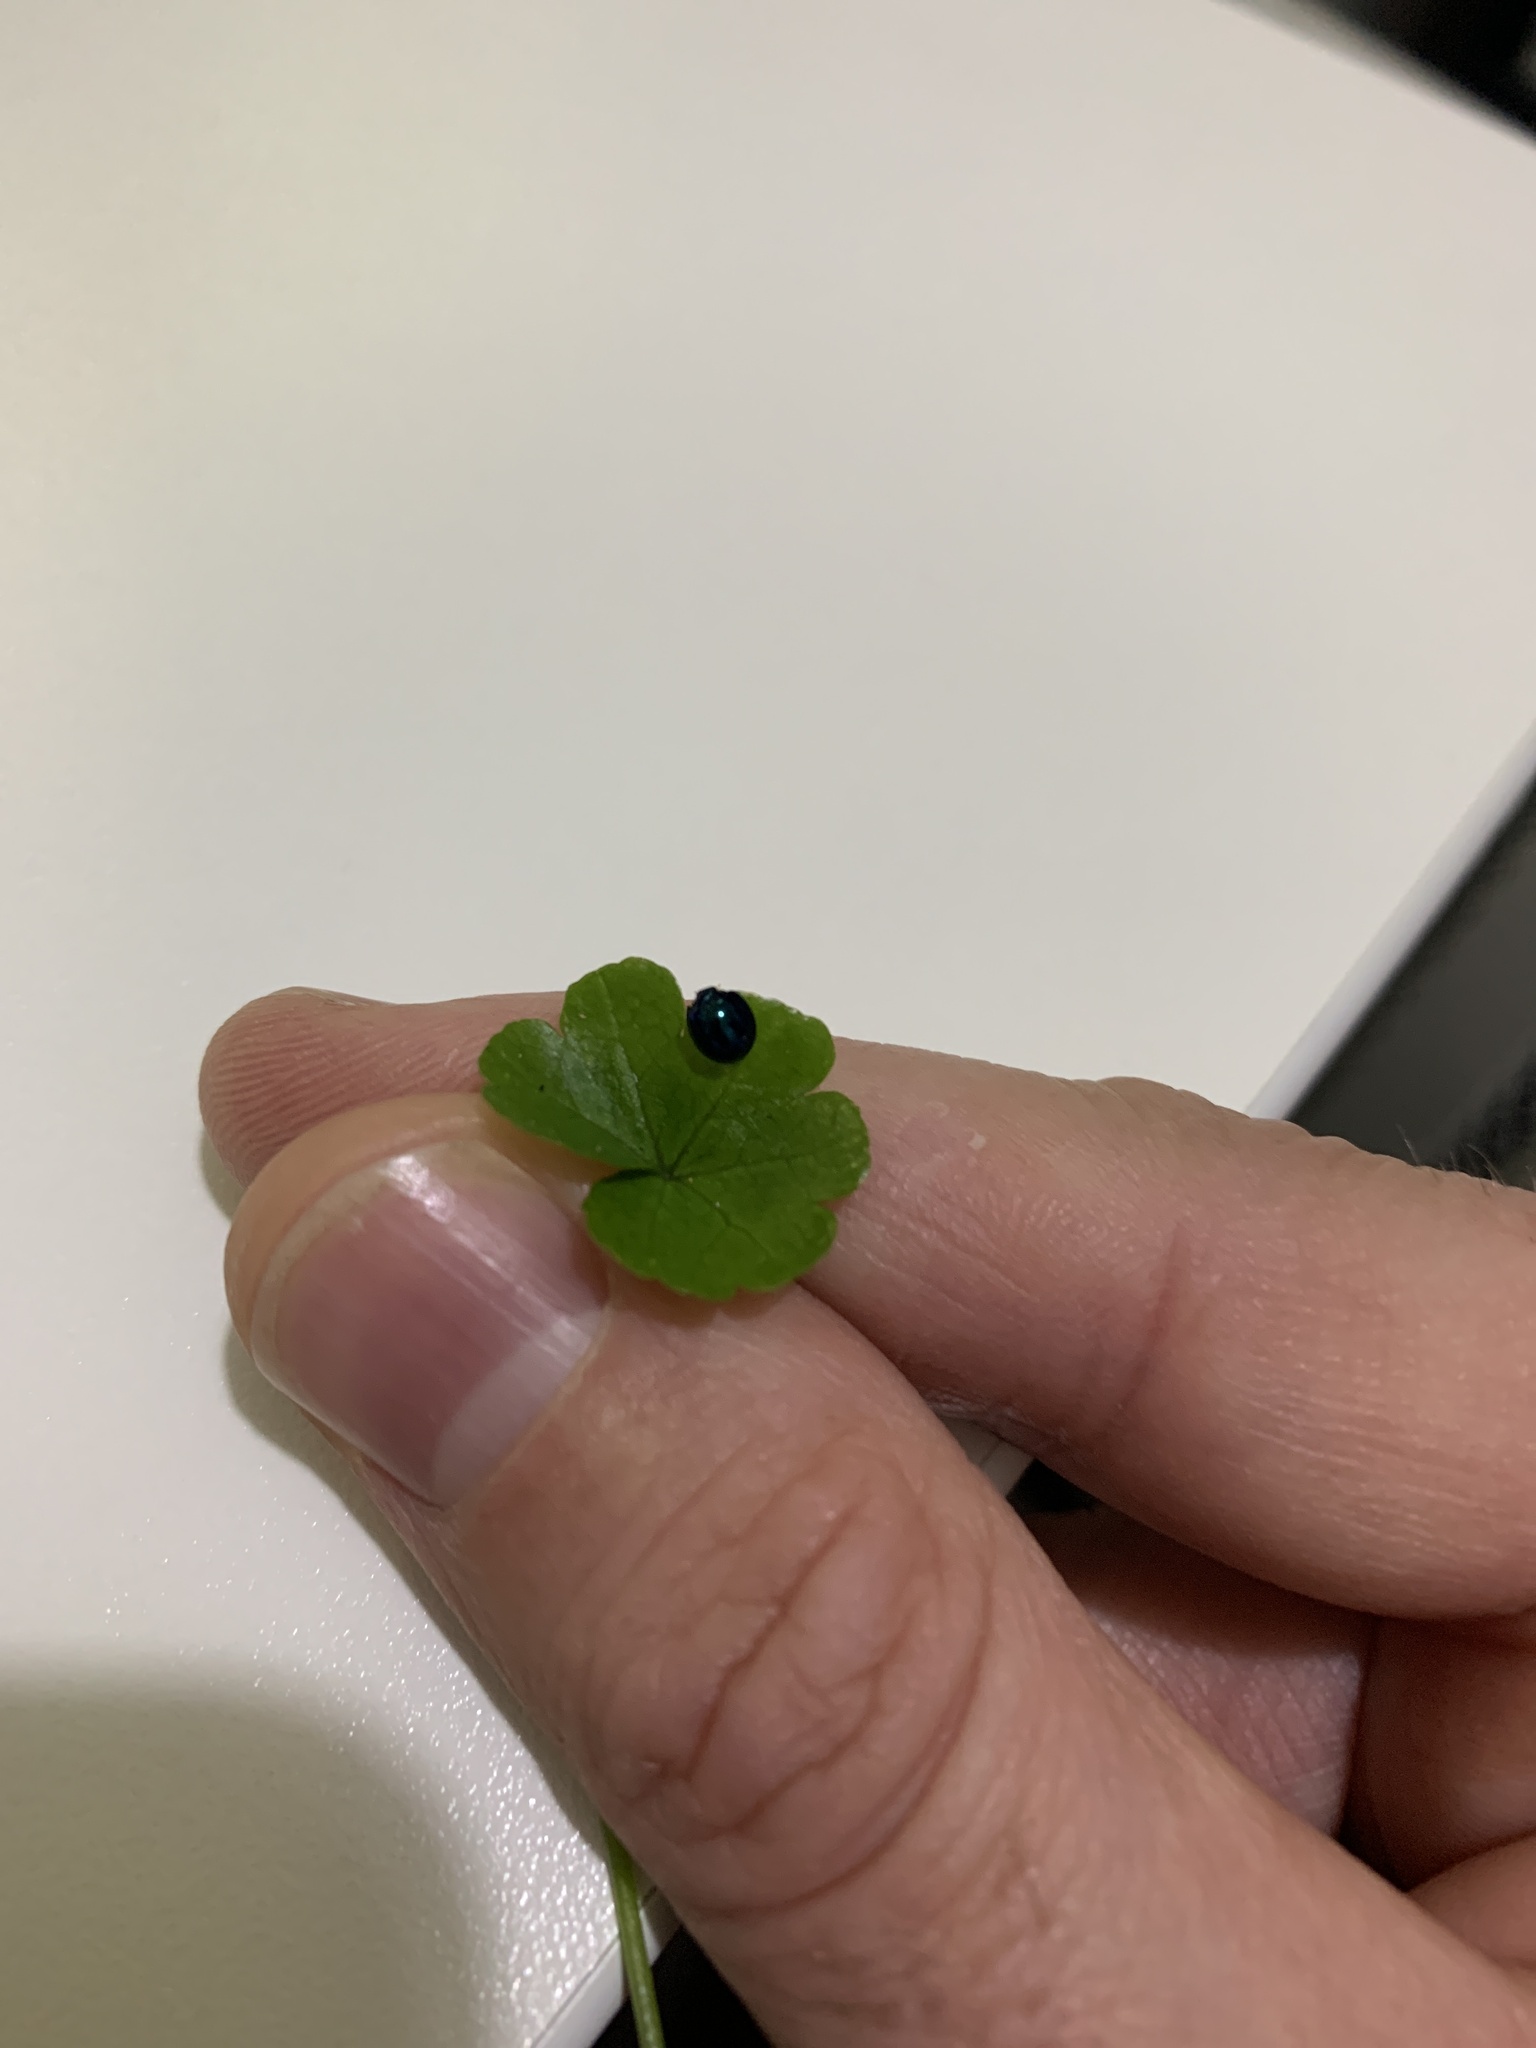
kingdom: Animalia
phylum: Arthropoda
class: Insecta
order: Coleoptera
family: Coccinellidae
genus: Halmus
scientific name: Halmus chalybeus
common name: Steel blue ladybird beetle
